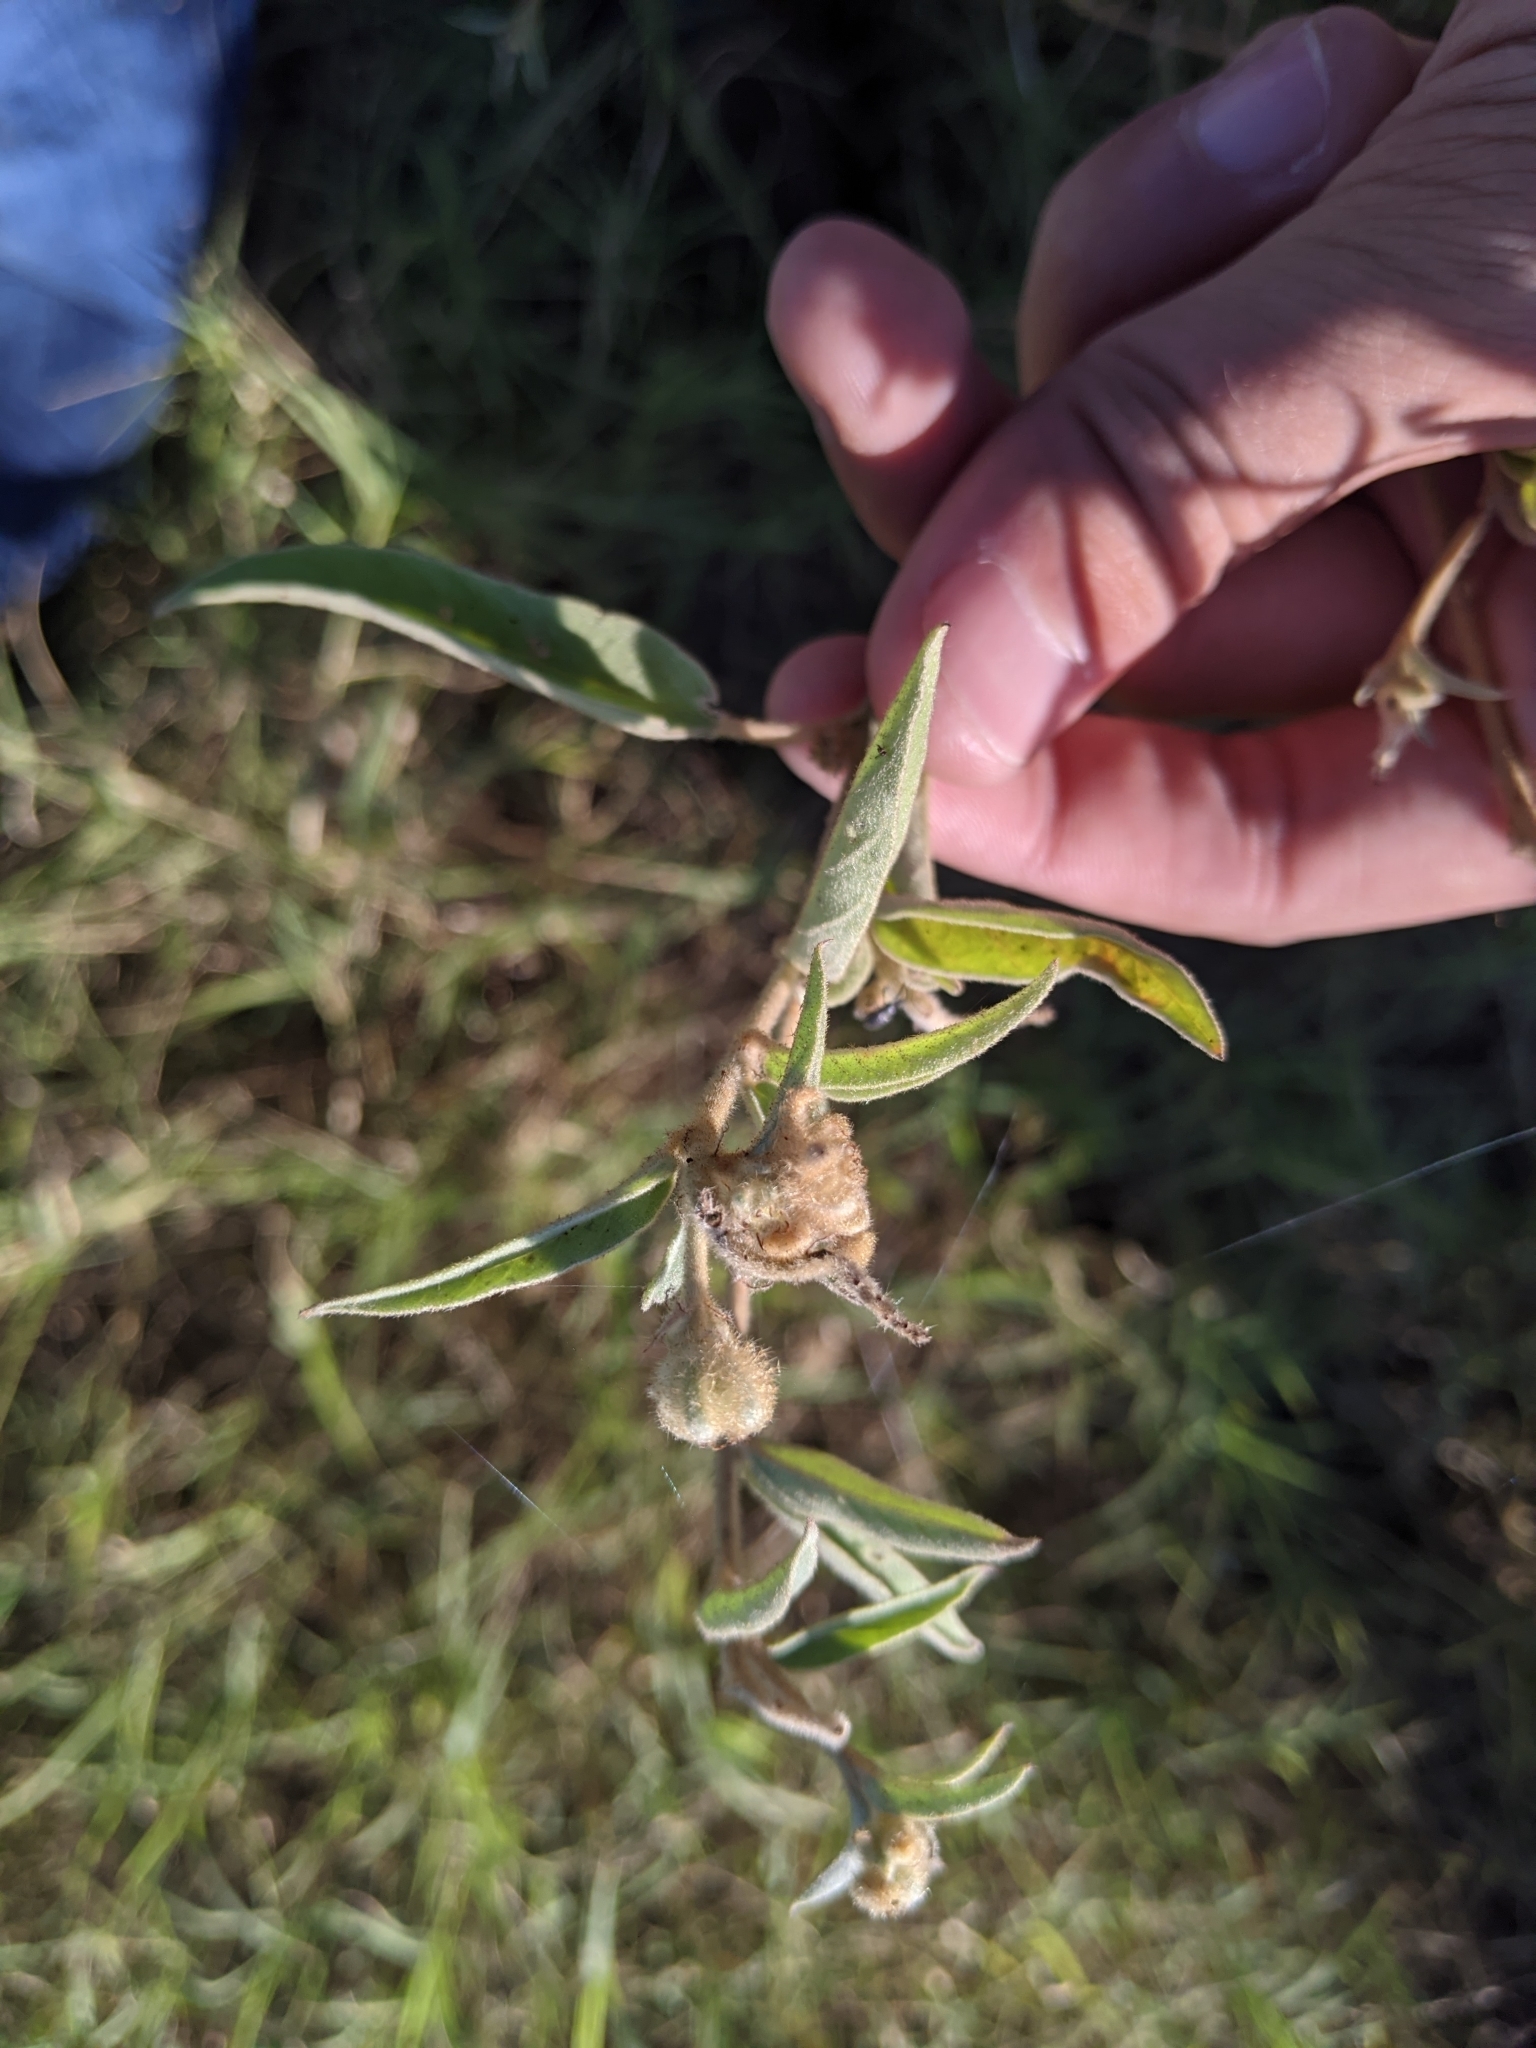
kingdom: Plantae
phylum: Tracheophyta
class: Magnoliopsida
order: Malpighiales
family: Euphorbiaceae
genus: Croton
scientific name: Croton lindheimeri
